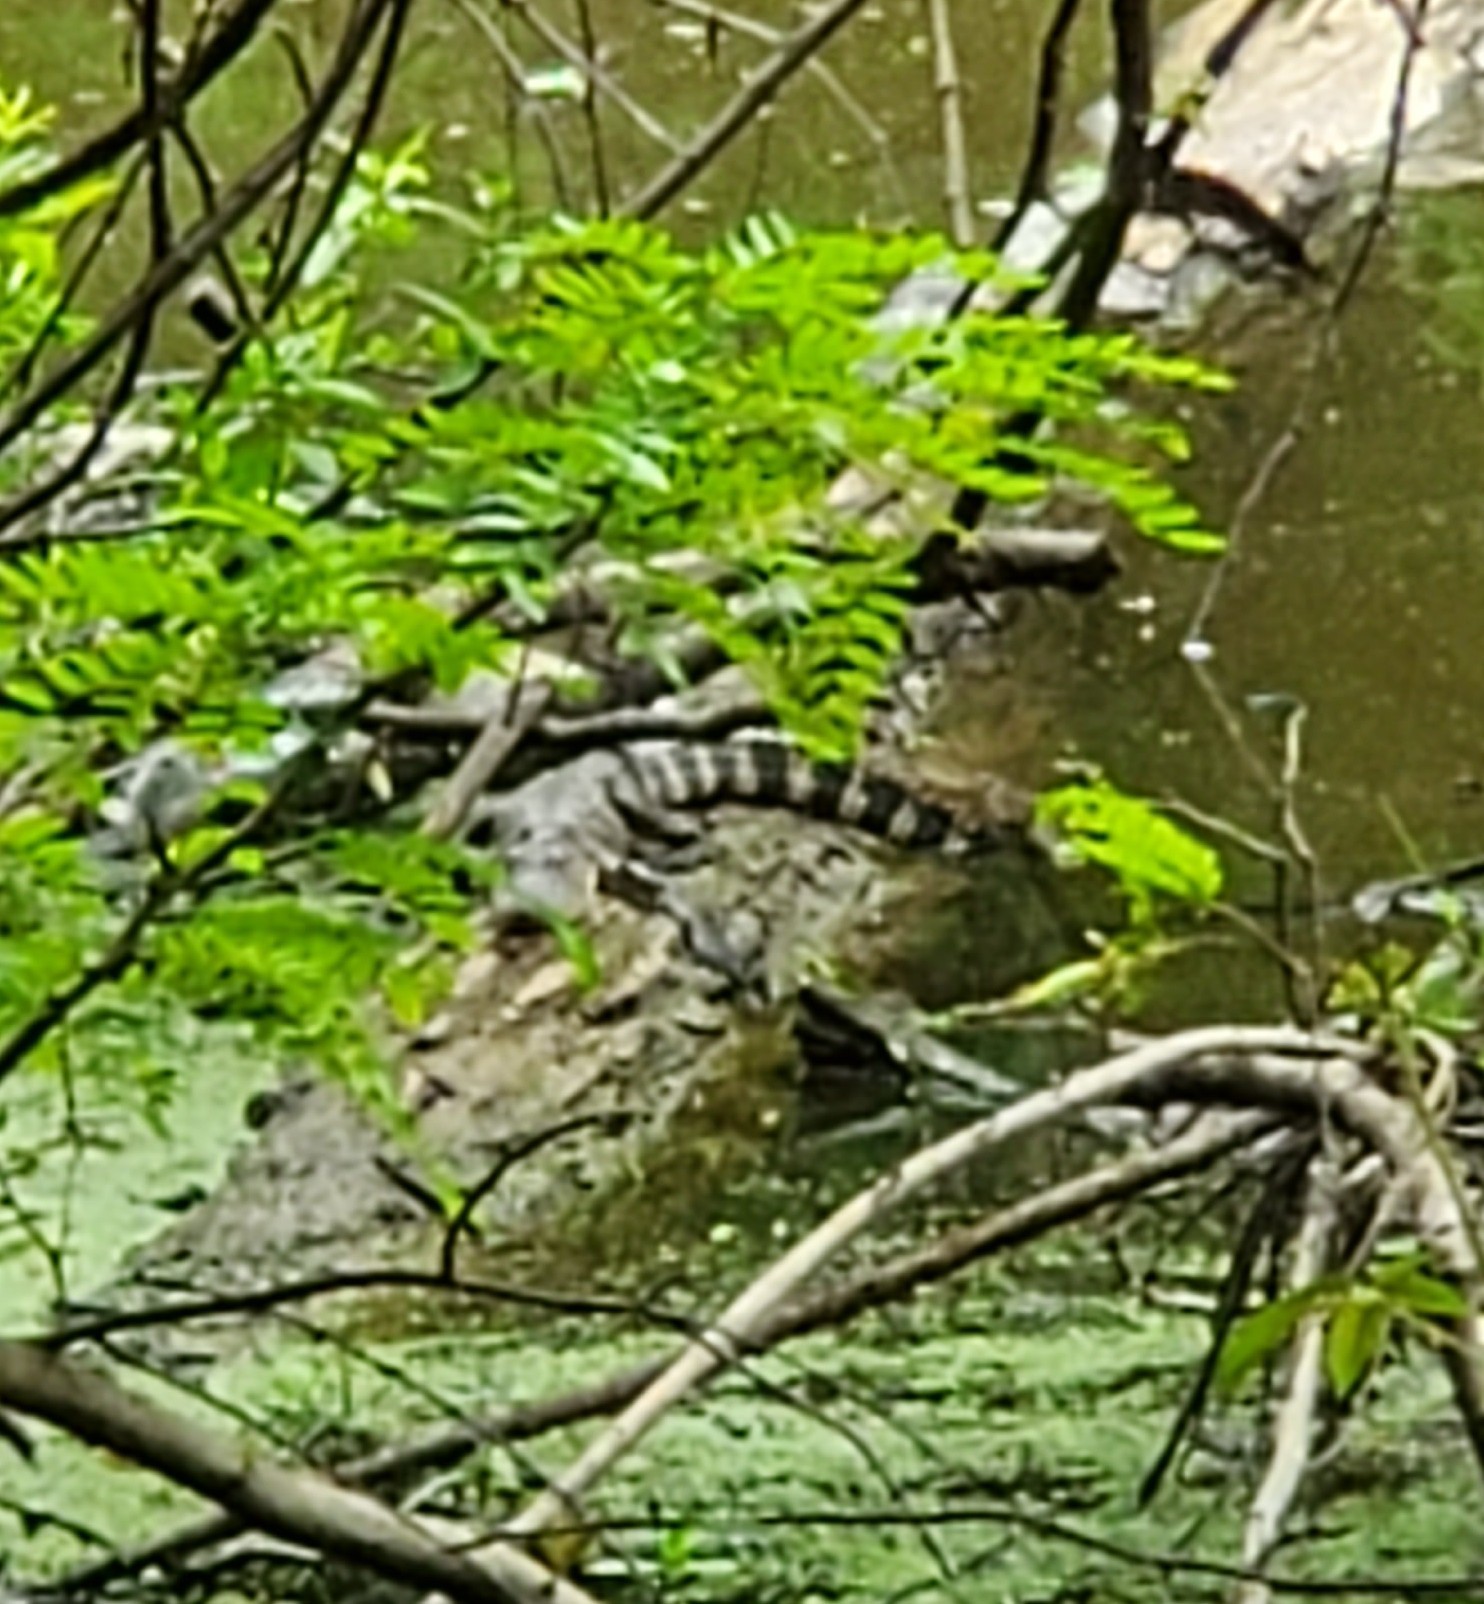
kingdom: Animalia
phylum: Chordata
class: Crocodylia
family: Alligatoridae
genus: Alligator
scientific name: Alligator mississippiensis
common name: American alligator
